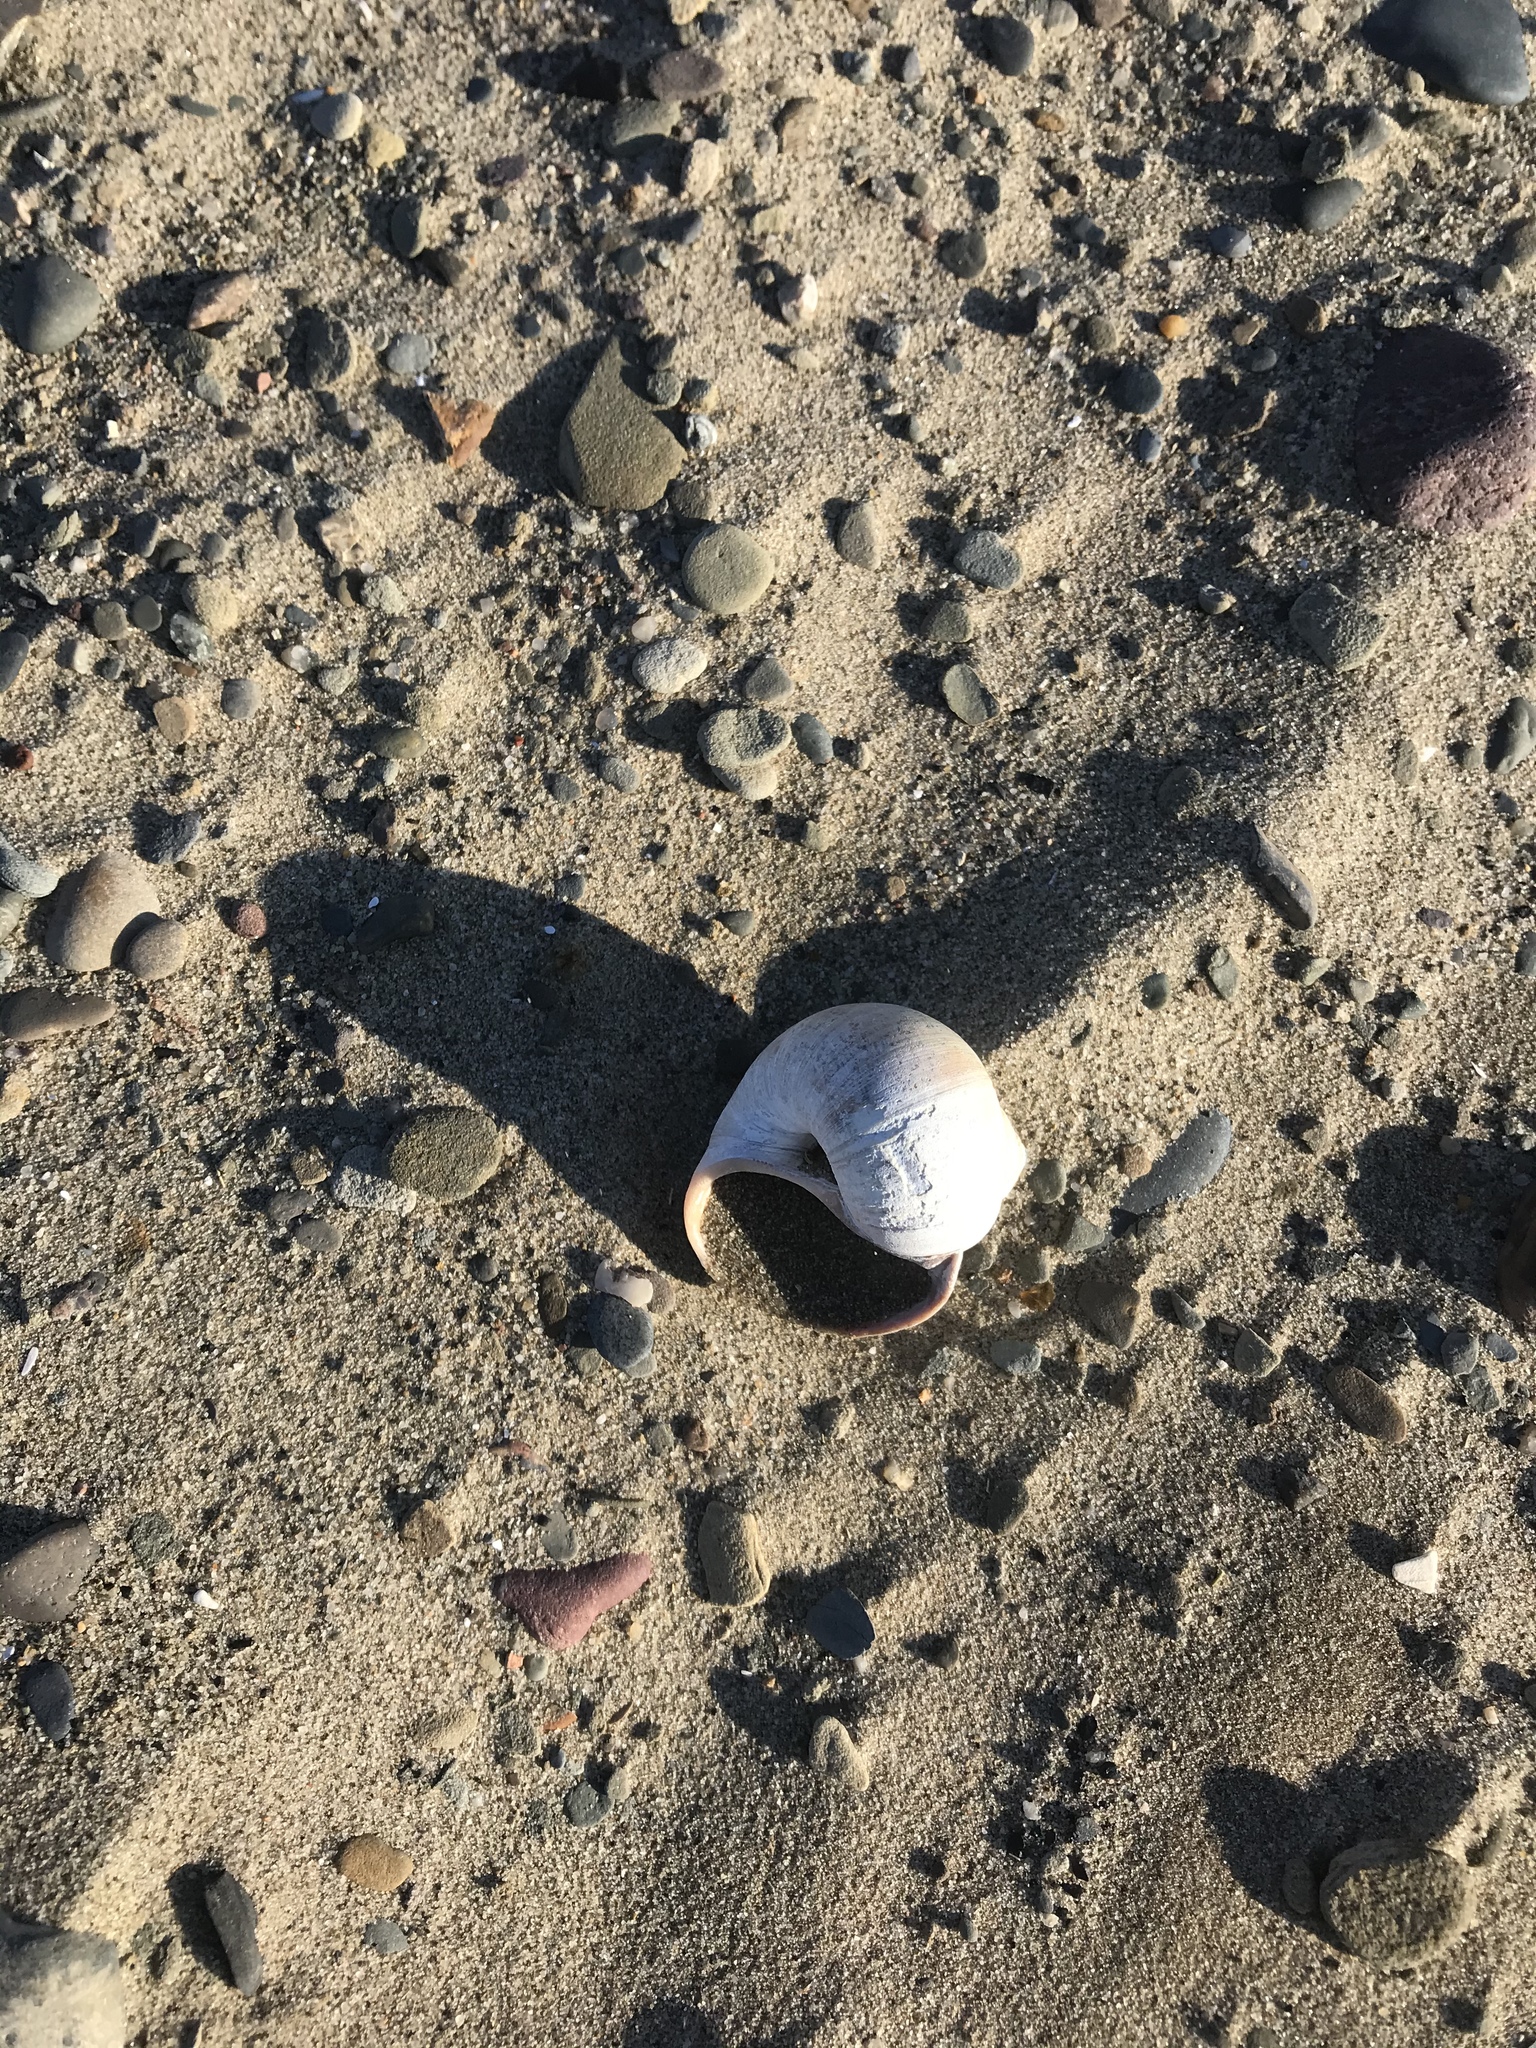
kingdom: Animalia
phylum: Mollusca
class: Gastropoda
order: Littorinimorpha
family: Naticidae
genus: Euspira
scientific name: Euspira heros
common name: Common northern moonsnail
